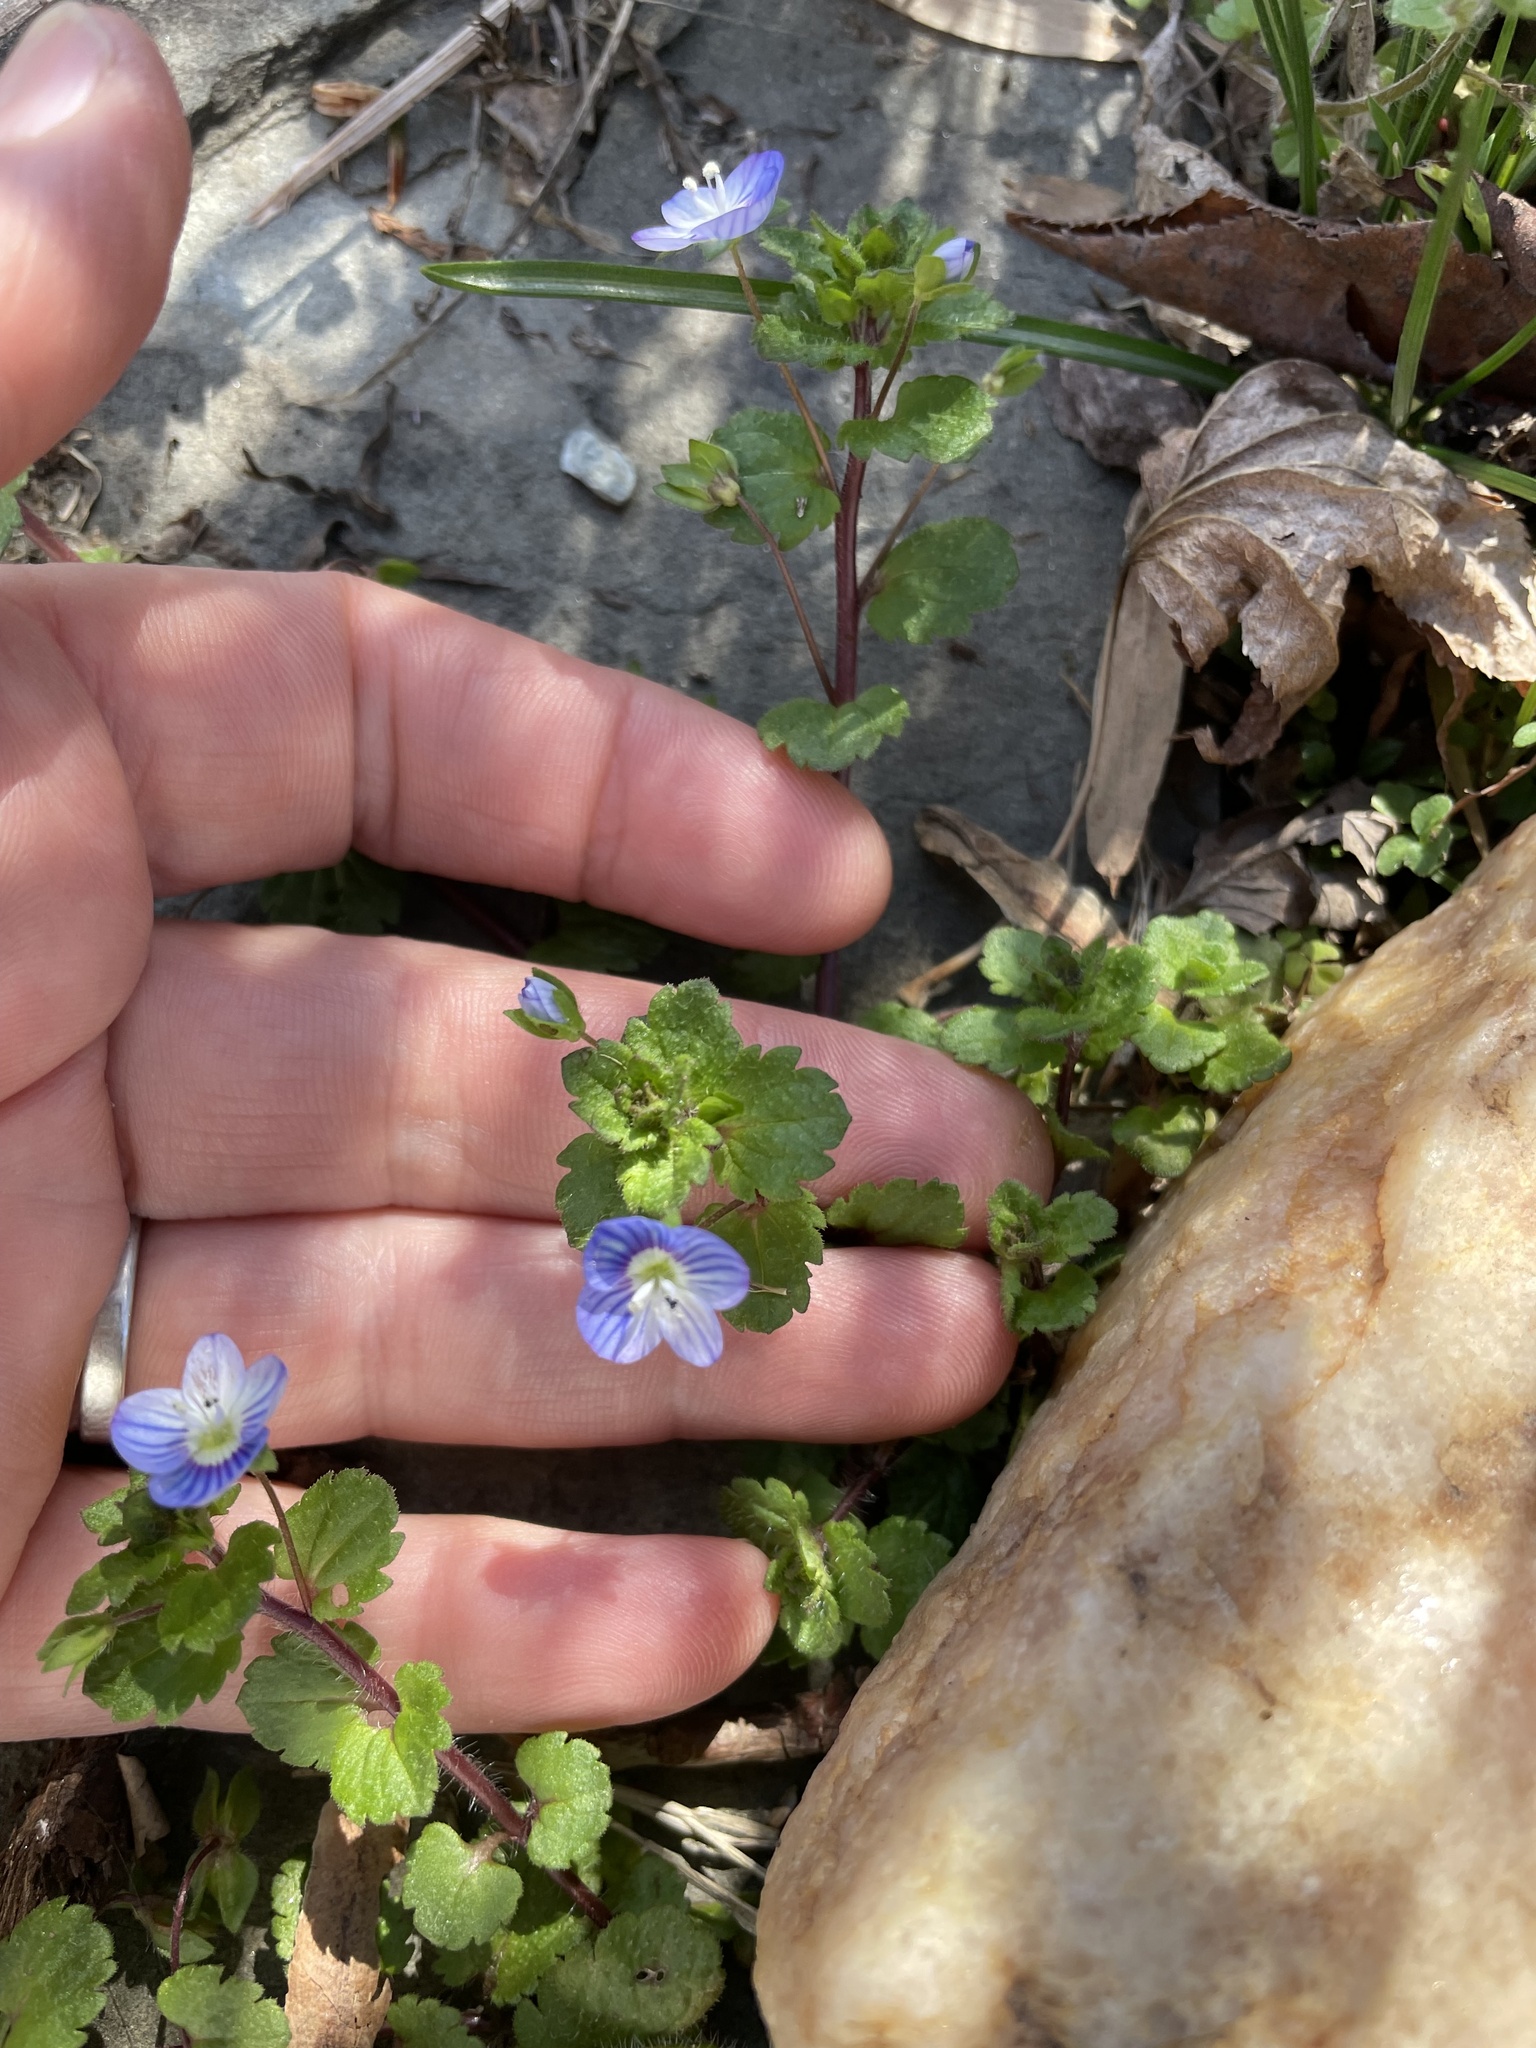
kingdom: Plantae
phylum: Tracheophyta
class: Magnoliopsida
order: Lamiales
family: Plantaginaceae
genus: Veronica
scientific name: Veronica persica
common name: Common field-speedwell
